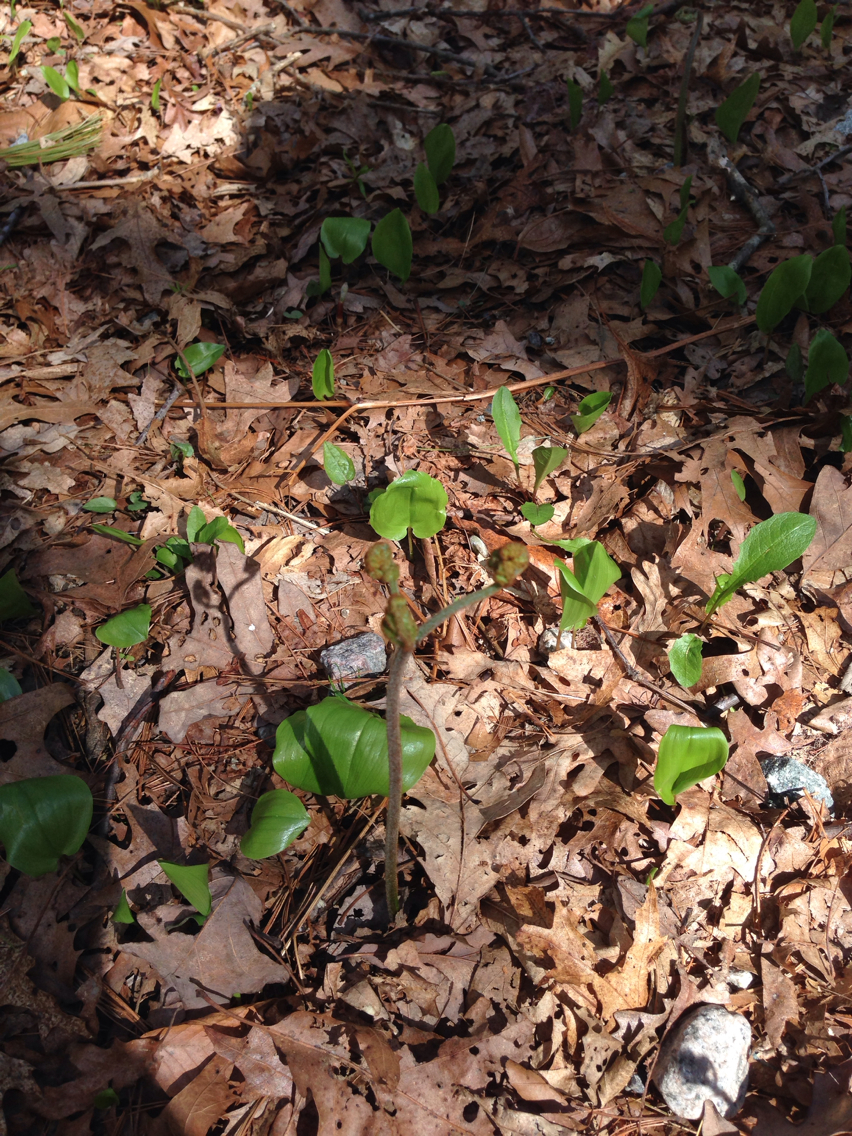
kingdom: Plantae
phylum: Tracheophyta
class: Polypodiopsida
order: Polypodiales
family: Dennstaedtiaceae
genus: Pteridium
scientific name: Pteridium aquilinum
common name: Bracken
